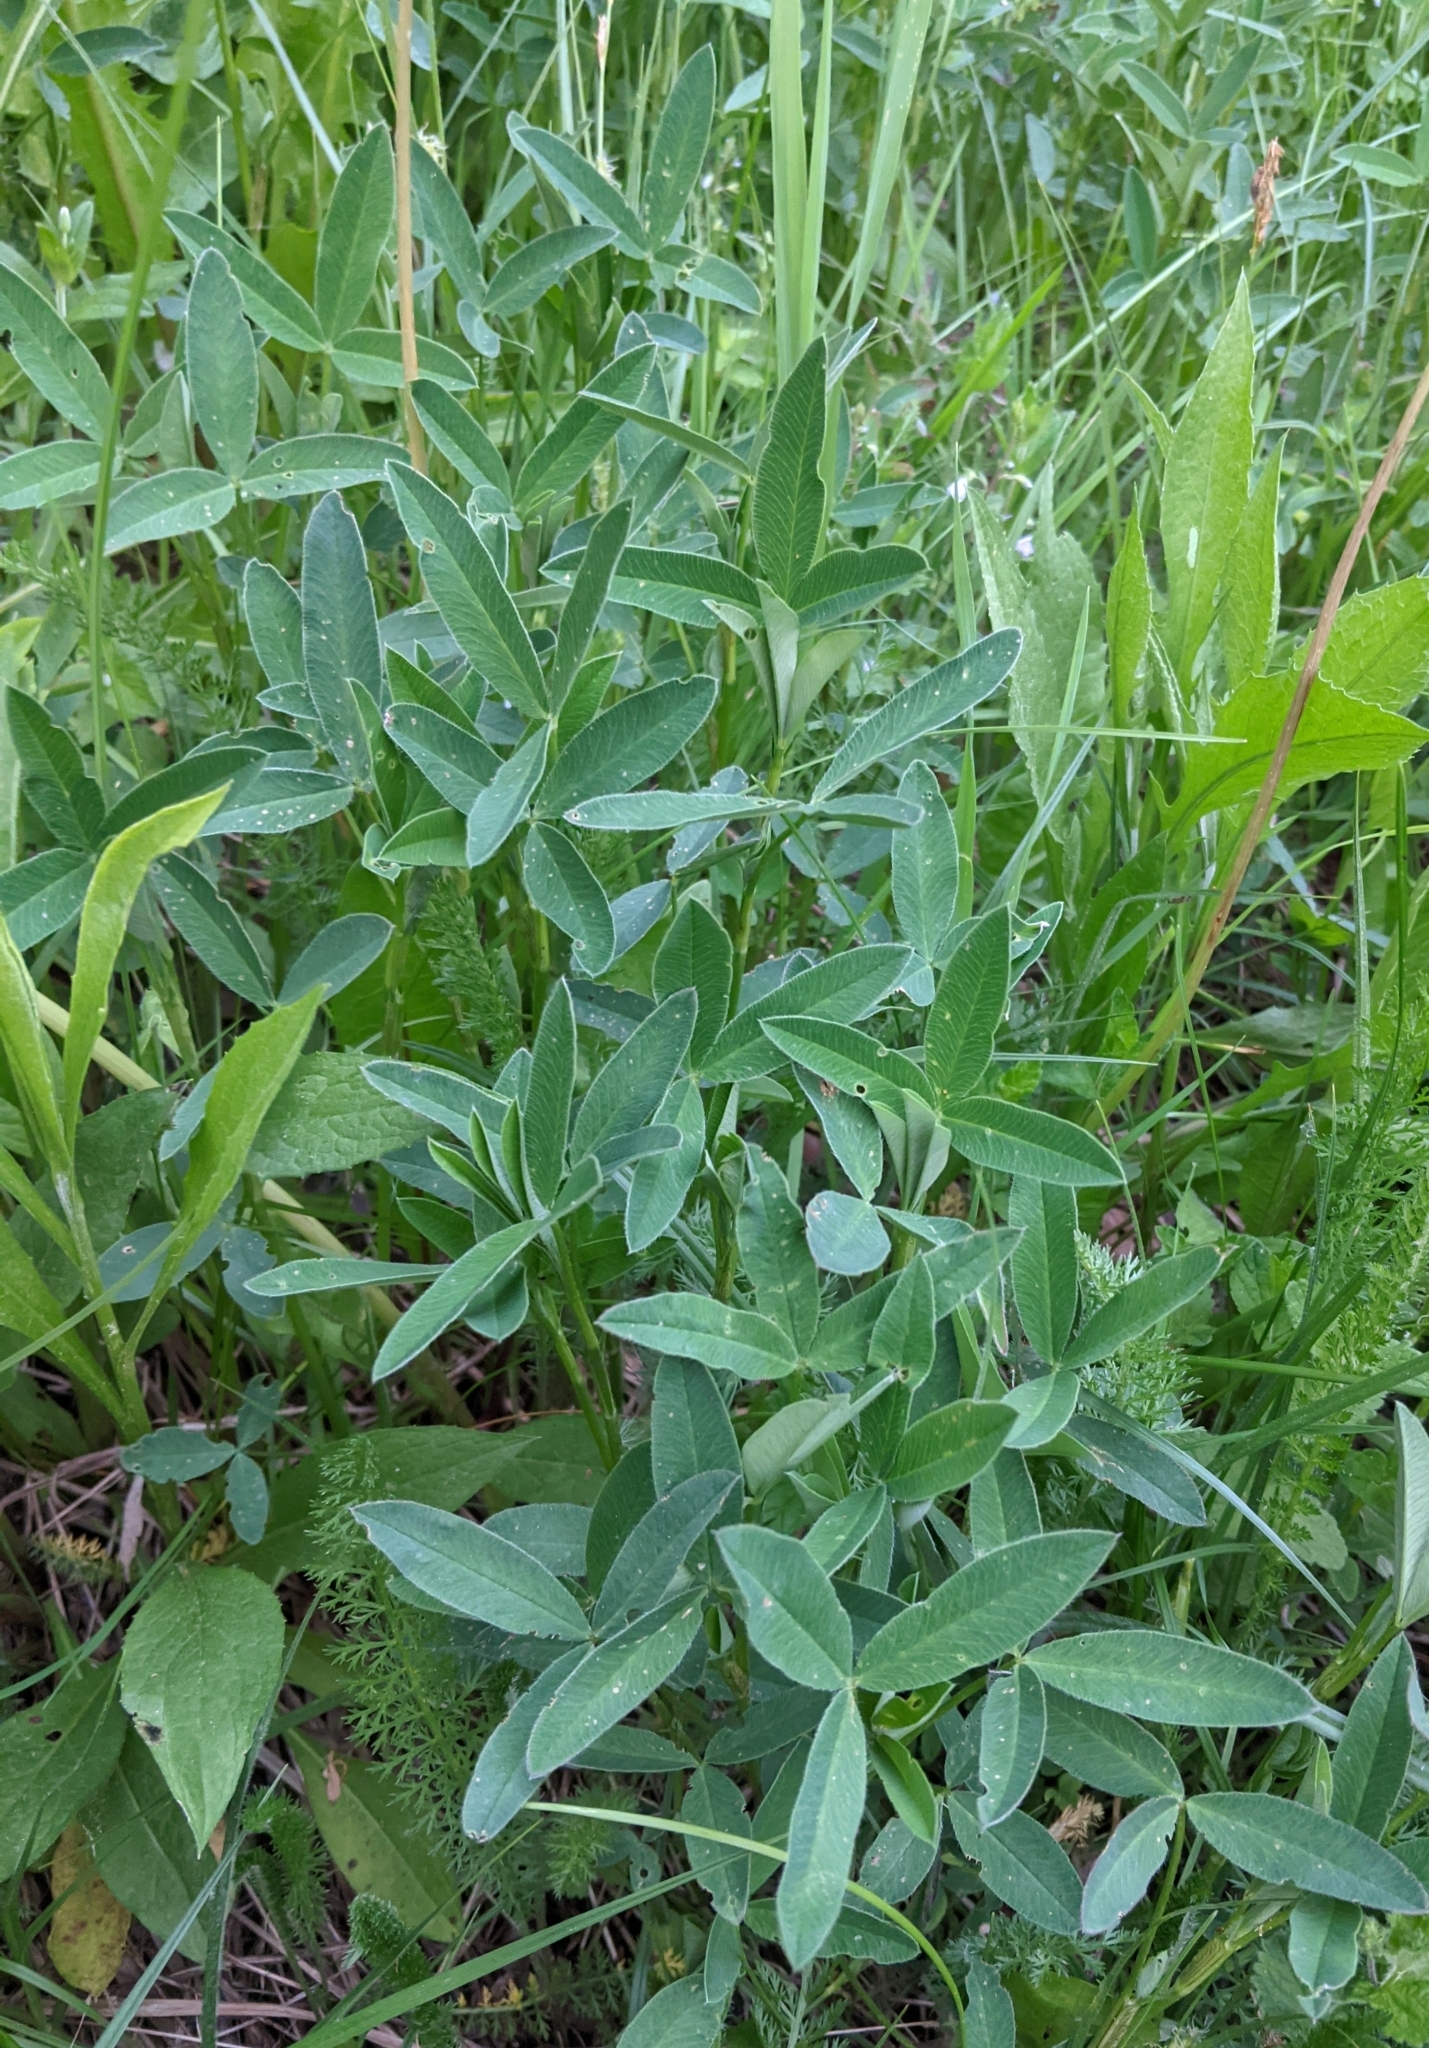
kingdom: Plantae
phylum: Tracheophyta
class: Magnoliopsida
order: Fabales
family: Fabaceae
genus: Trifolium
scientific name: Trifolium medium
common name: Zigzag clover
